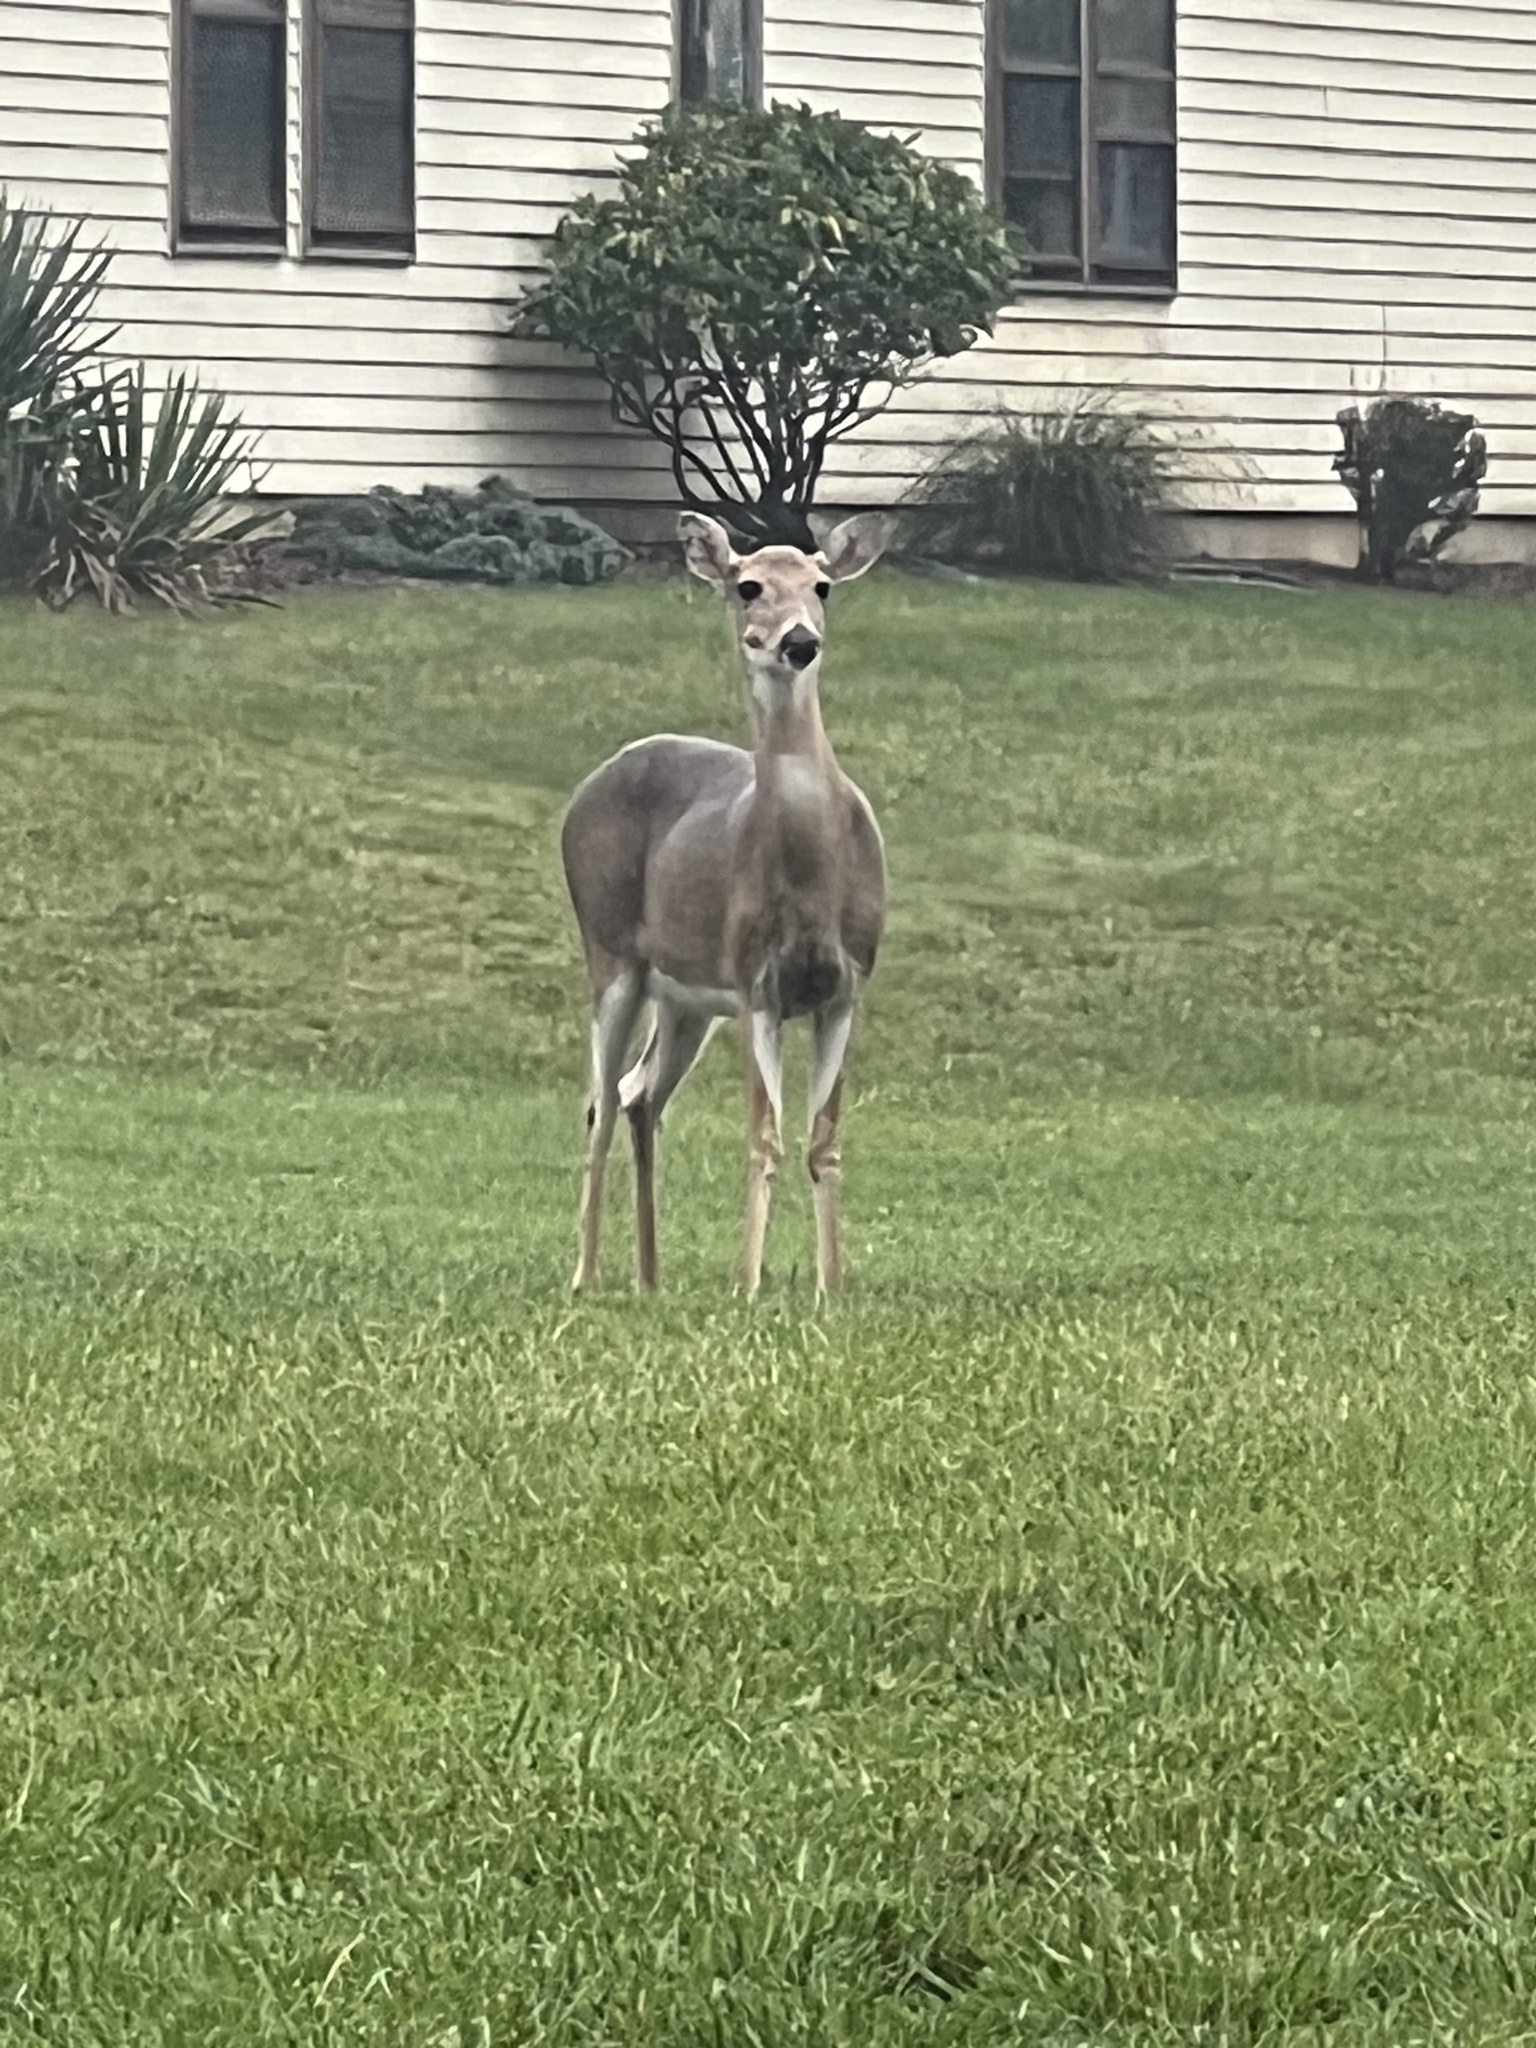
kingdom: Animalia
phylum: Chordata
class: Mammalia
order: Artiodactyla
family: Cervidae
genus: Odocoileus
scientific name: Odocoileus virginianus
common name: White-tailed deer
